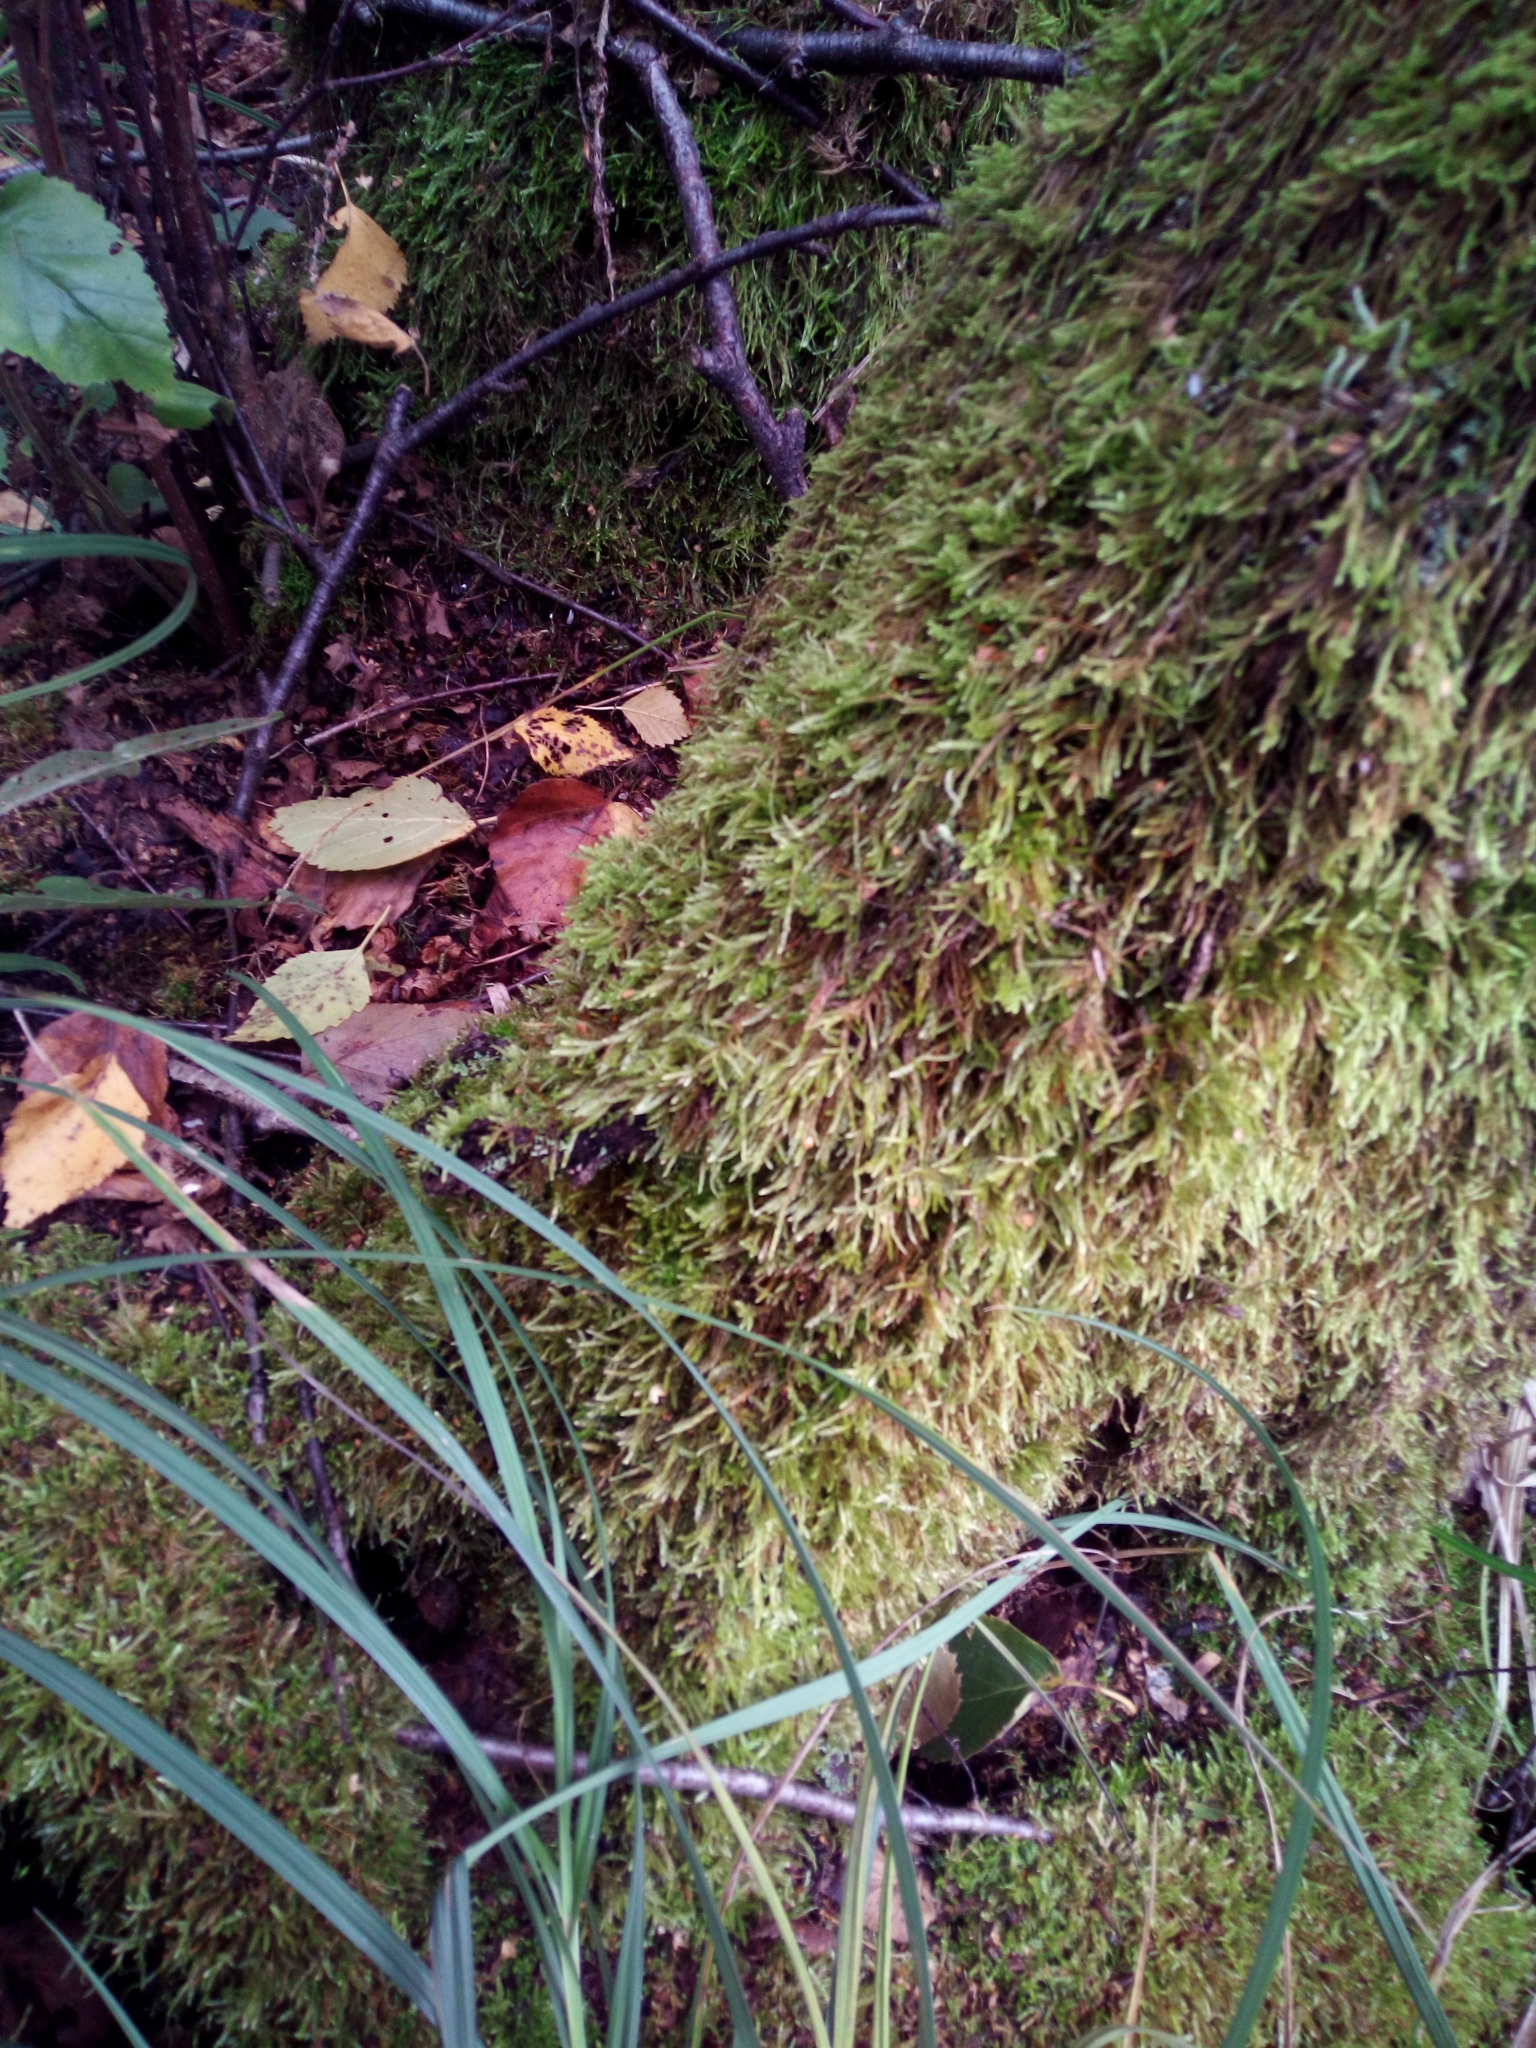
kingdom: Plantae
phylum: Bryophyta
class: Bryopsida
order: Hypnales
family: Hypnaceae
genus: Hypnum
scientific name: Hypnum cupressiforme
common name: Cypress-leaved plait-moss
